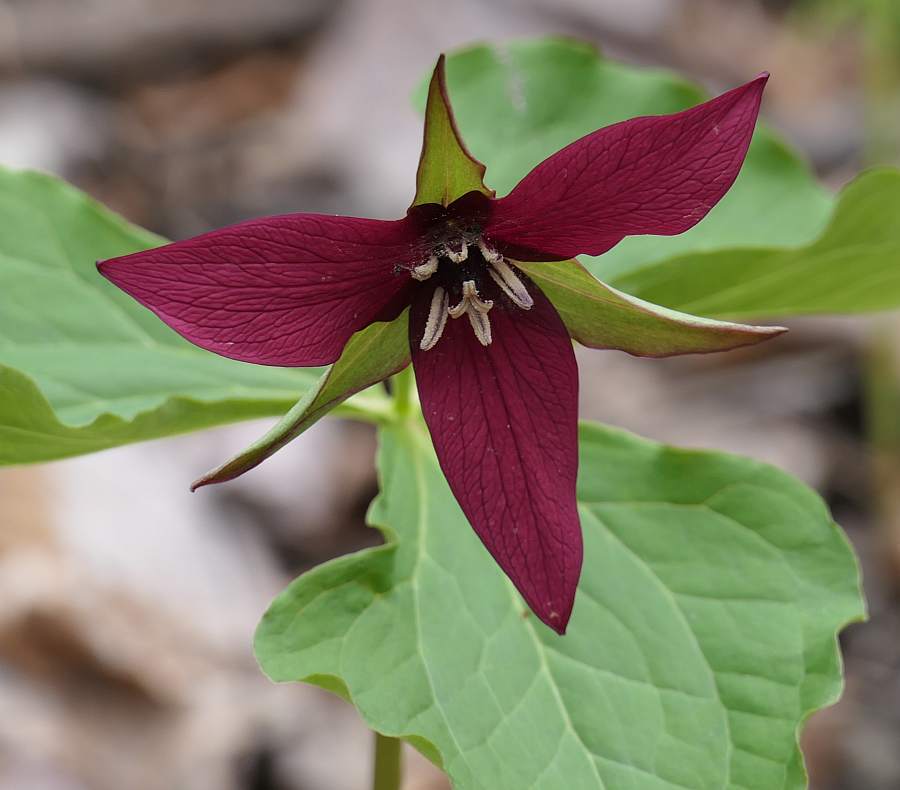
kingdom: Plantae
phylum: Tracheophyta
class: Liliopsida
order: Liliales
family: Melanthiaceae
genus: Trillium
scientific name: Trillium erectum
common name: Purple trillium
